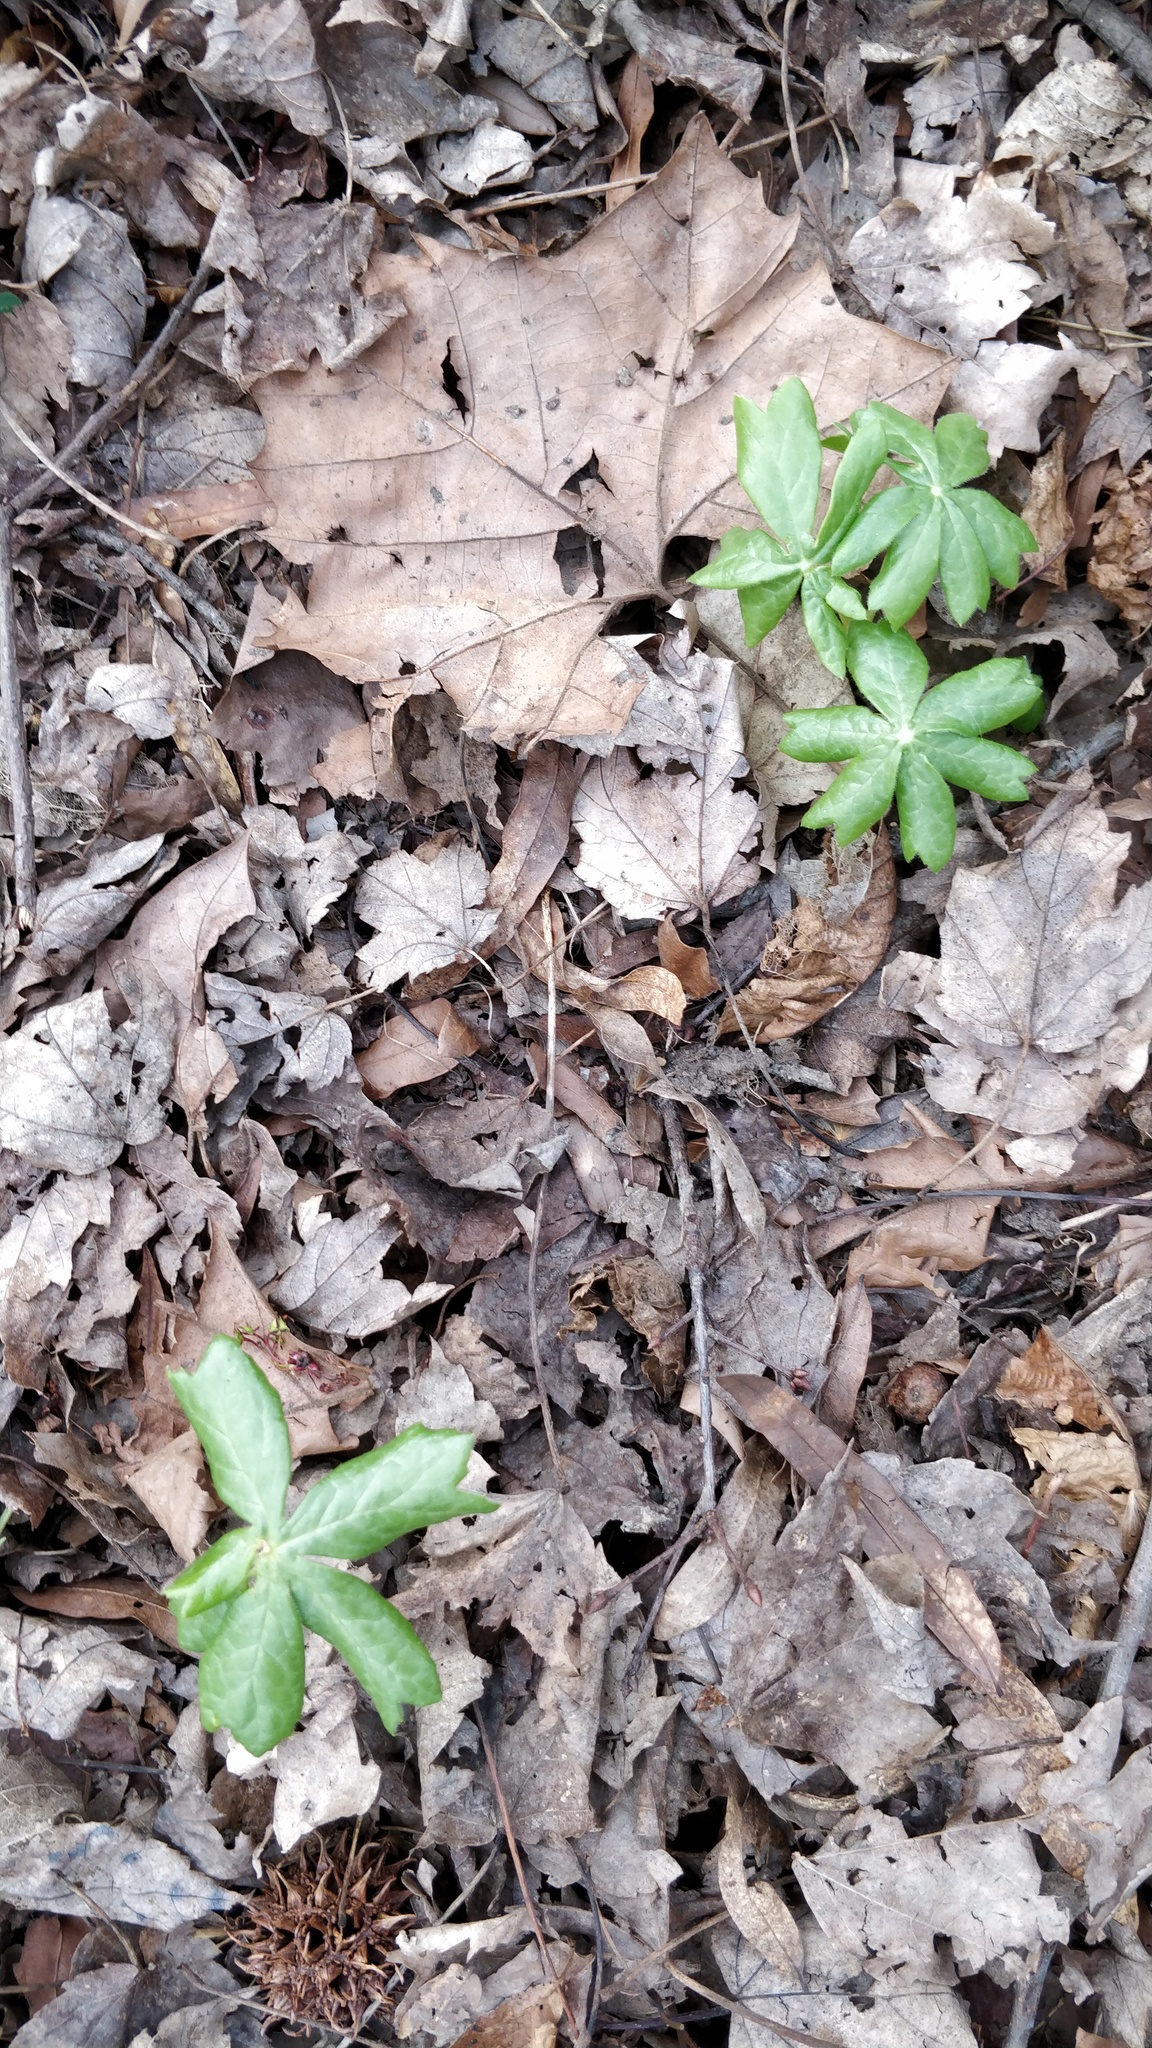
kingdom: Plantae
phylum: Tracheophyta
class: Magnoliopsida
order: Ranunculales
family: Berberidaceae
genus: Podophyllum
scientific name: Podophyllum peltatum
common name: Wild mandrake
